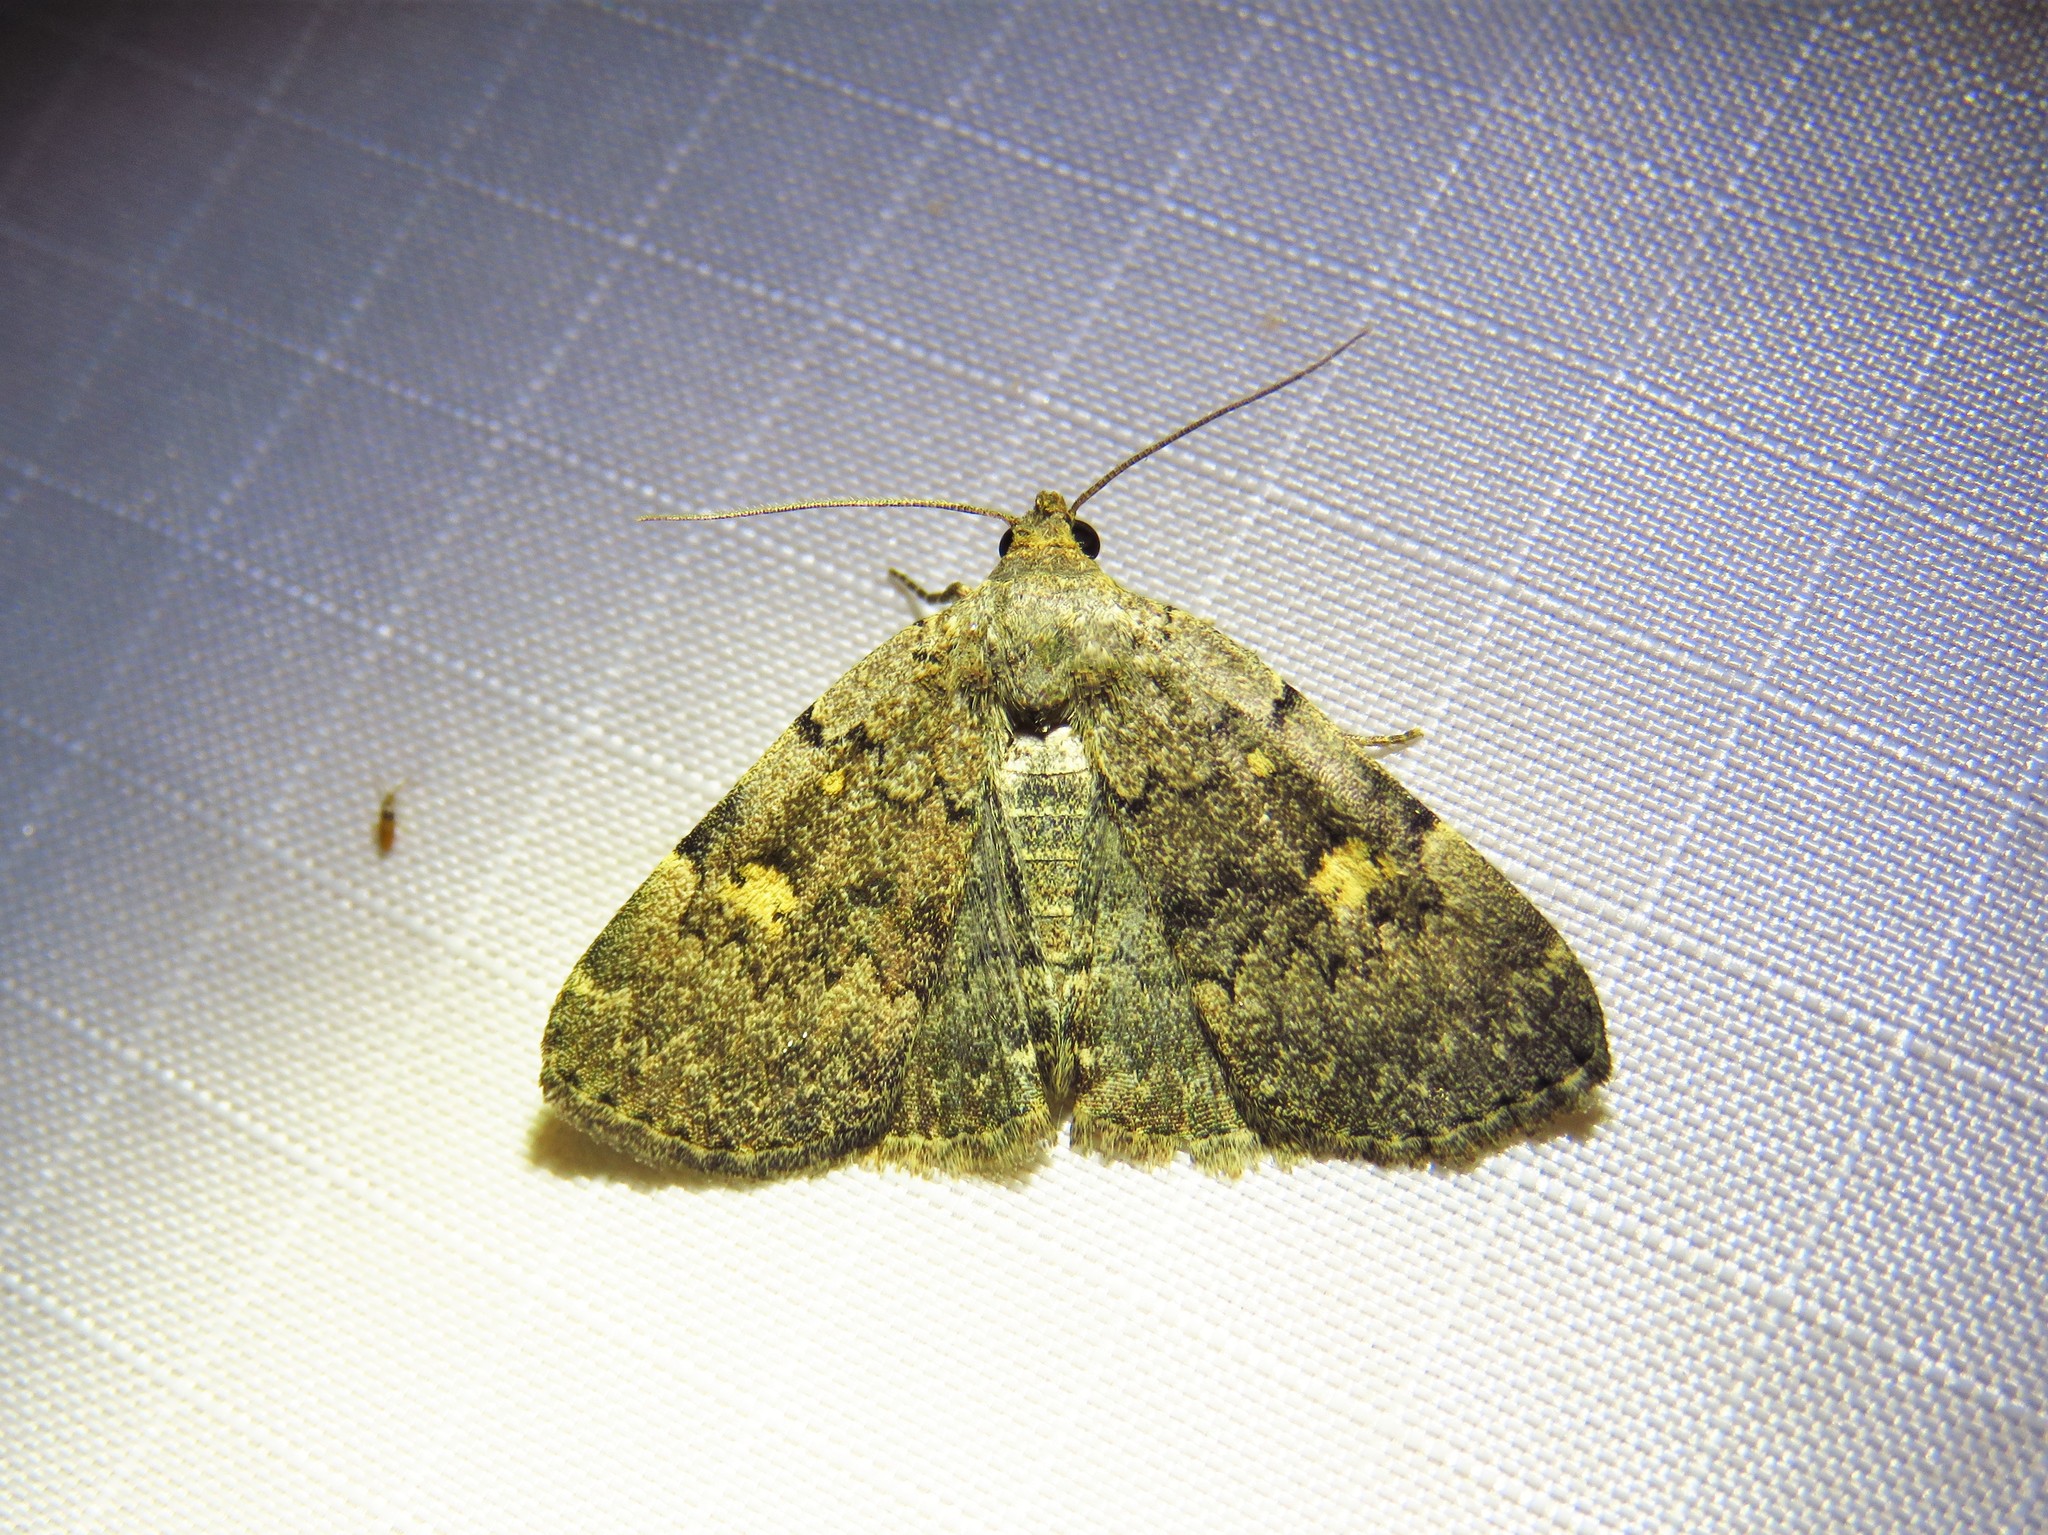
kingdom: Animalia
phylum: Arthropoda
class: Insecta
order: Lepidoptera
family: Erebidae
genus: Idia
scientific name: Idia aemula
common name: Common idia moth
